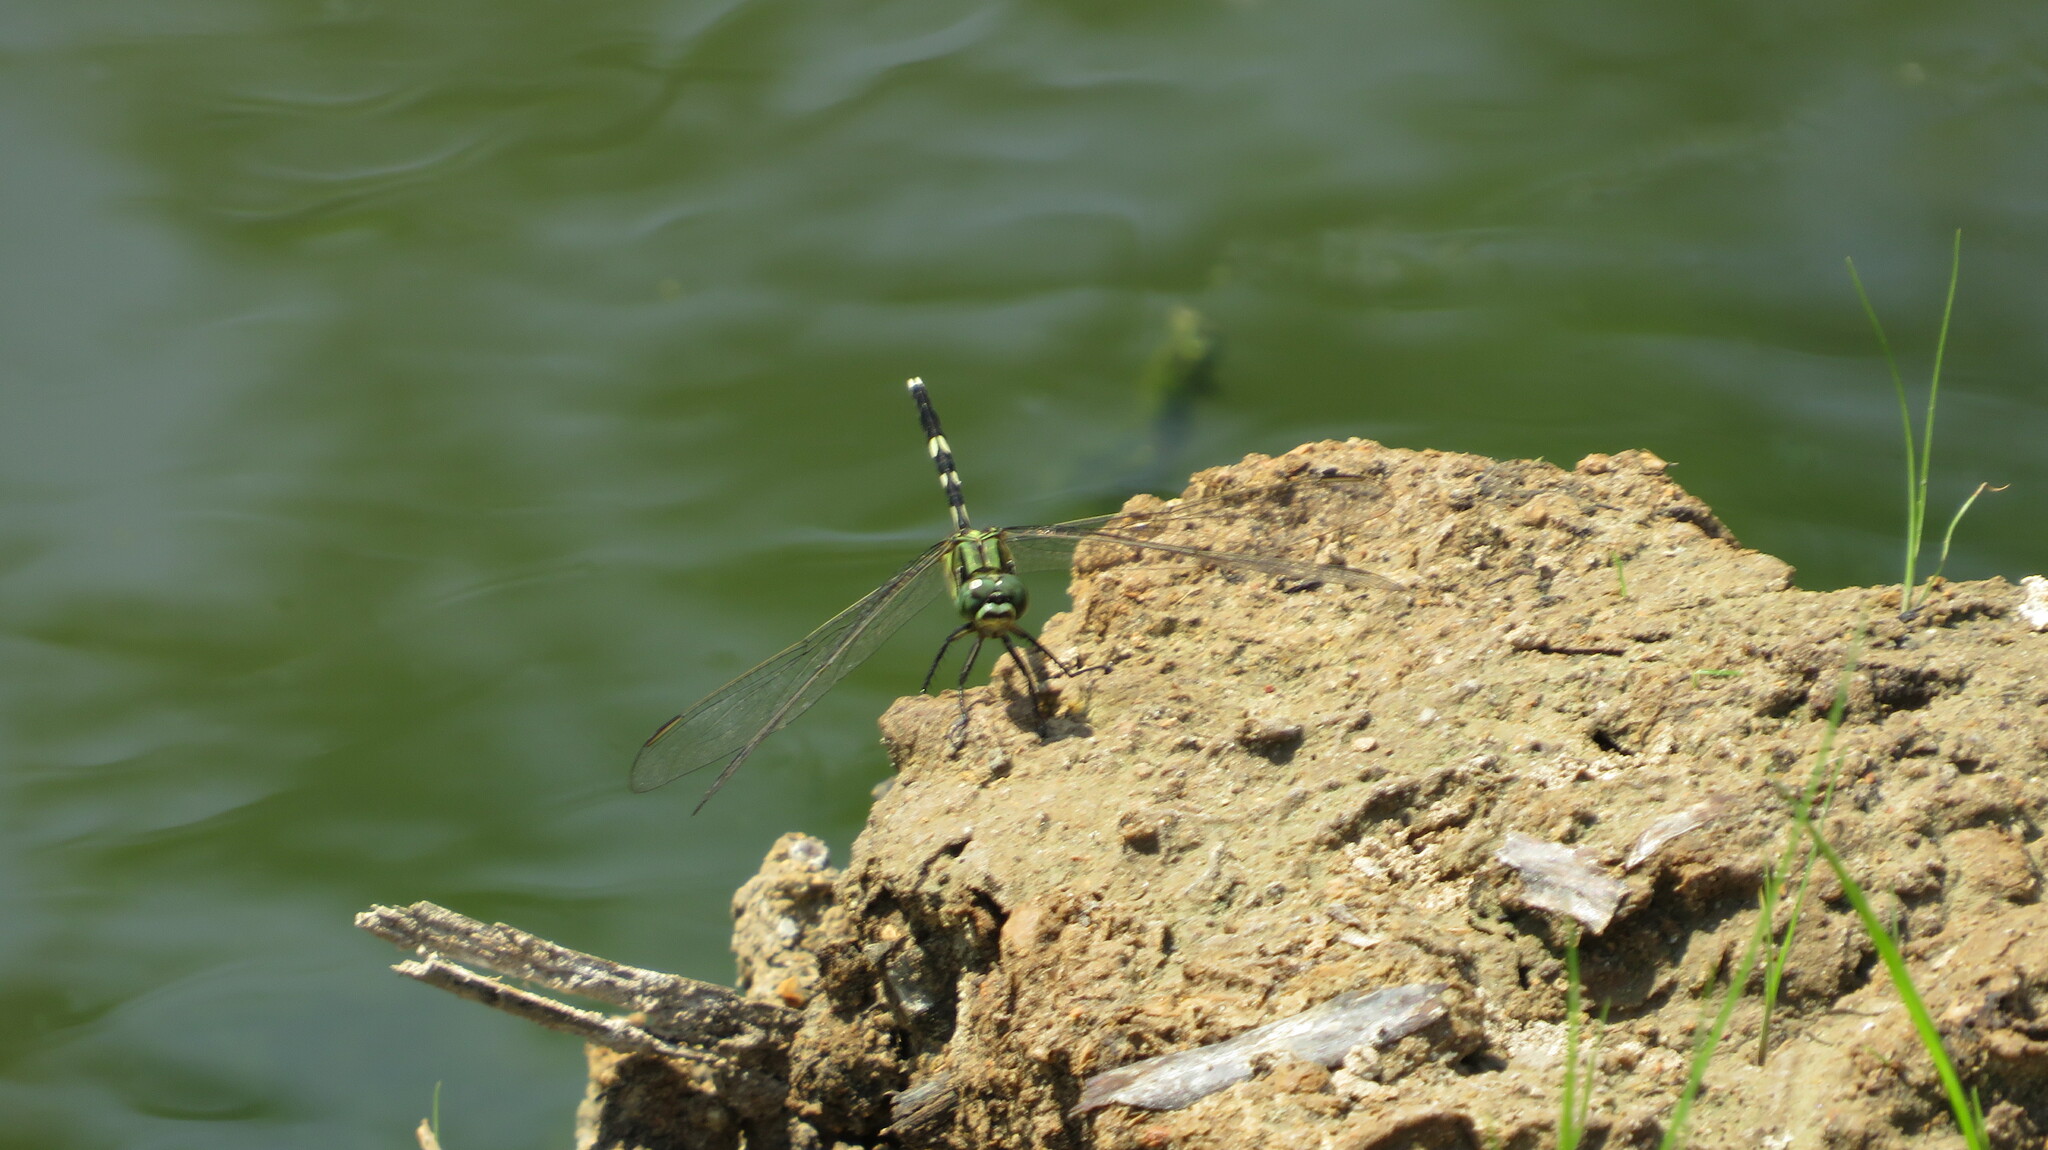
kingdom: Animalia
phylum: Arthropoda
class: Insecta
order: Odonata
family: Libellulidae
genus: Orthetrum
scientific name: Orthetrum sabina
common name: Slender skimmer
